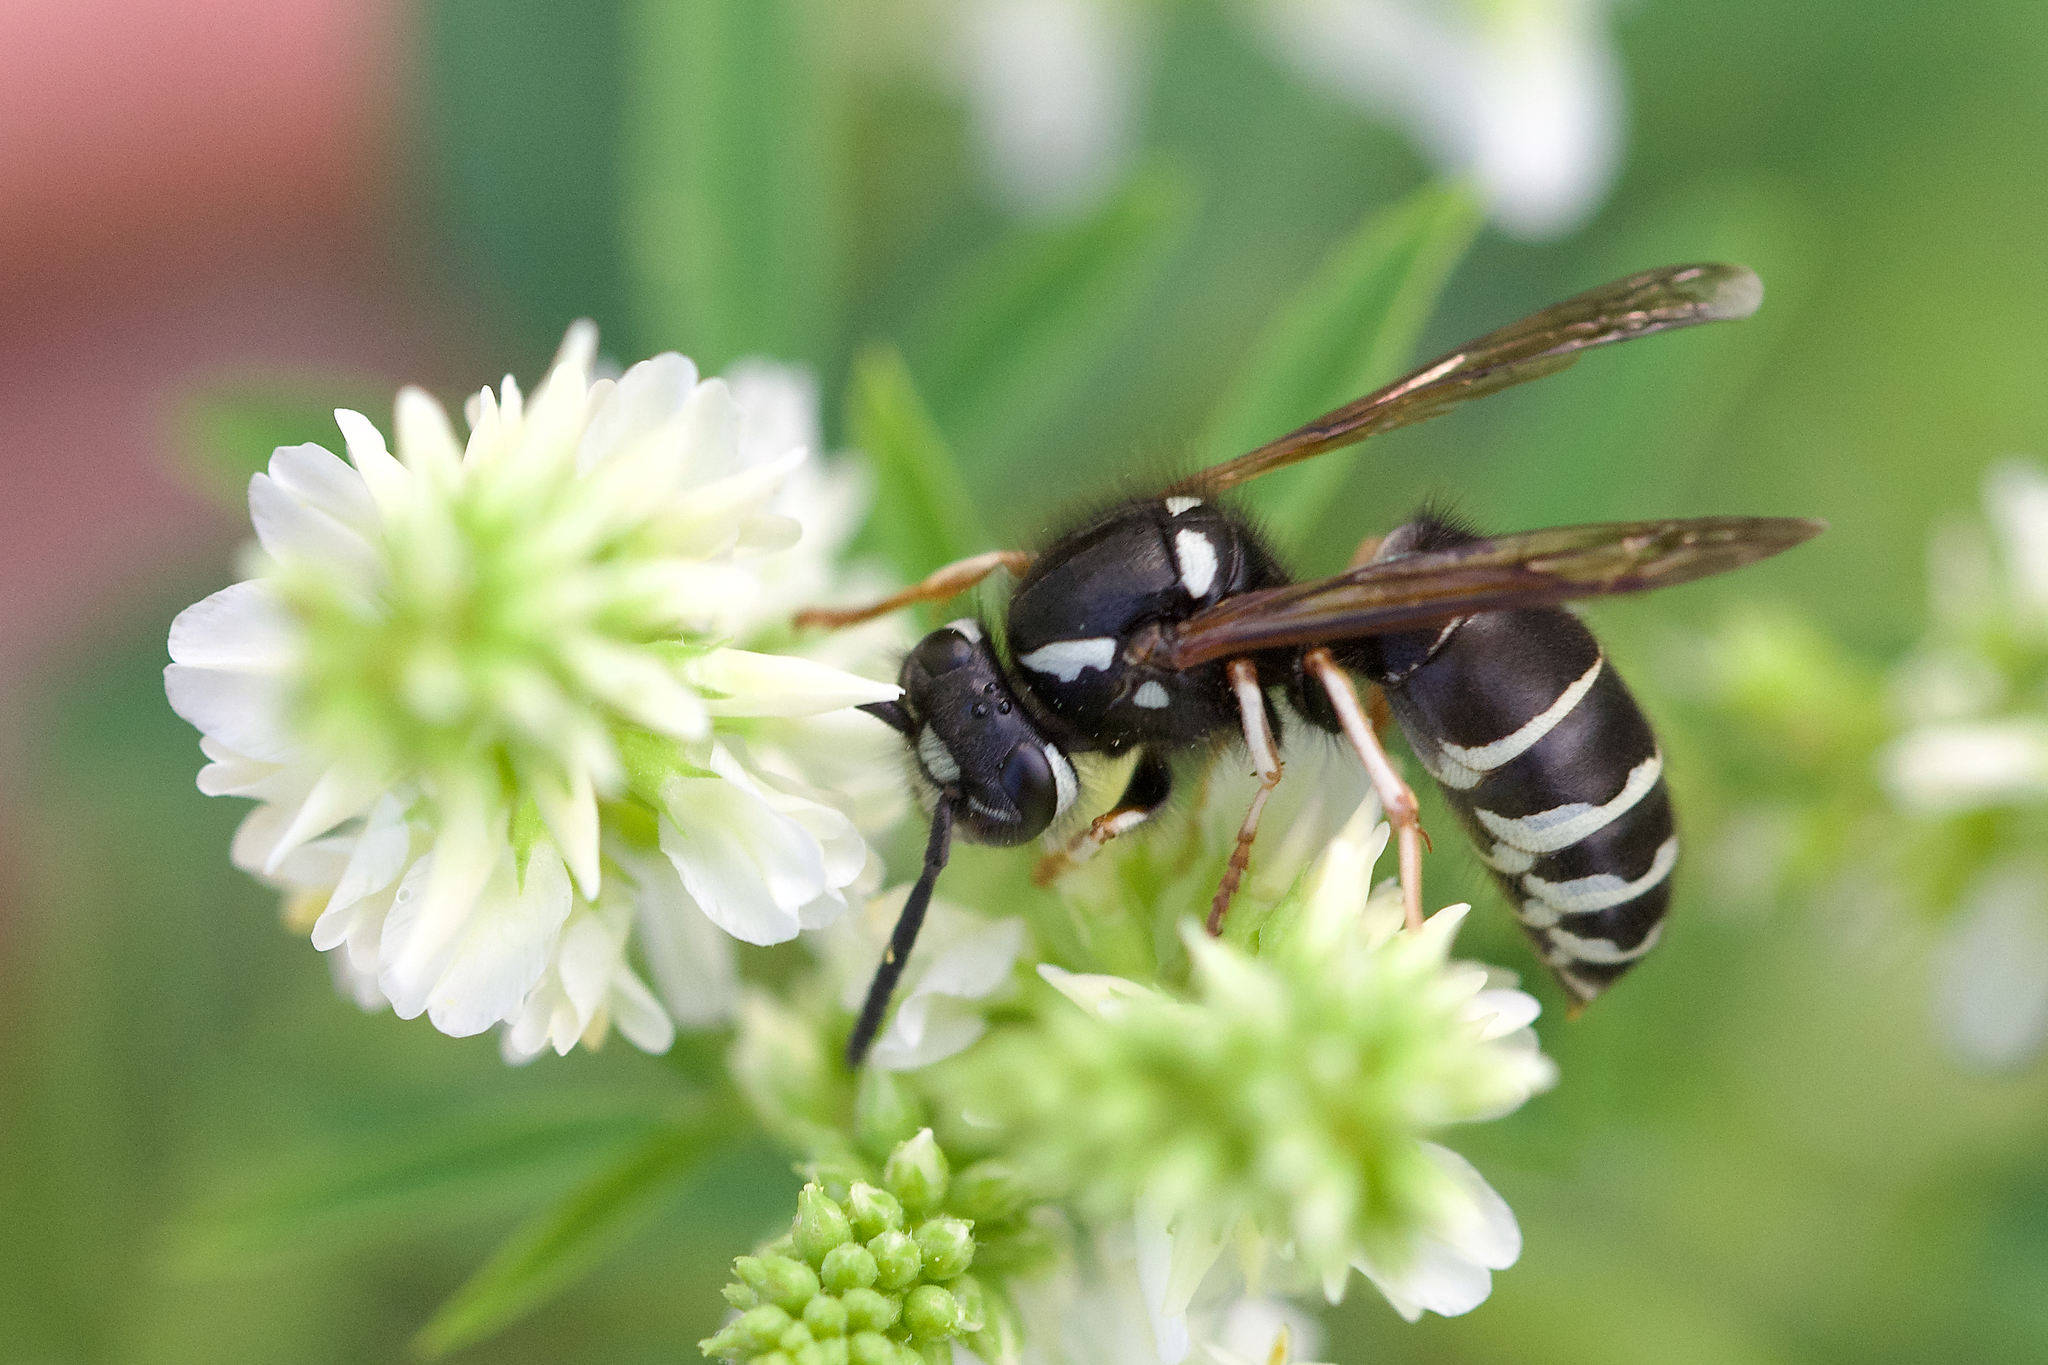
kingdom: Animalia
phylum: Arthropoda
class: Insecta
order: Hymenoptera
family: Vespidae
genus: Vespula
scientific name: Vespula consobrina
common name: Blackjacket
